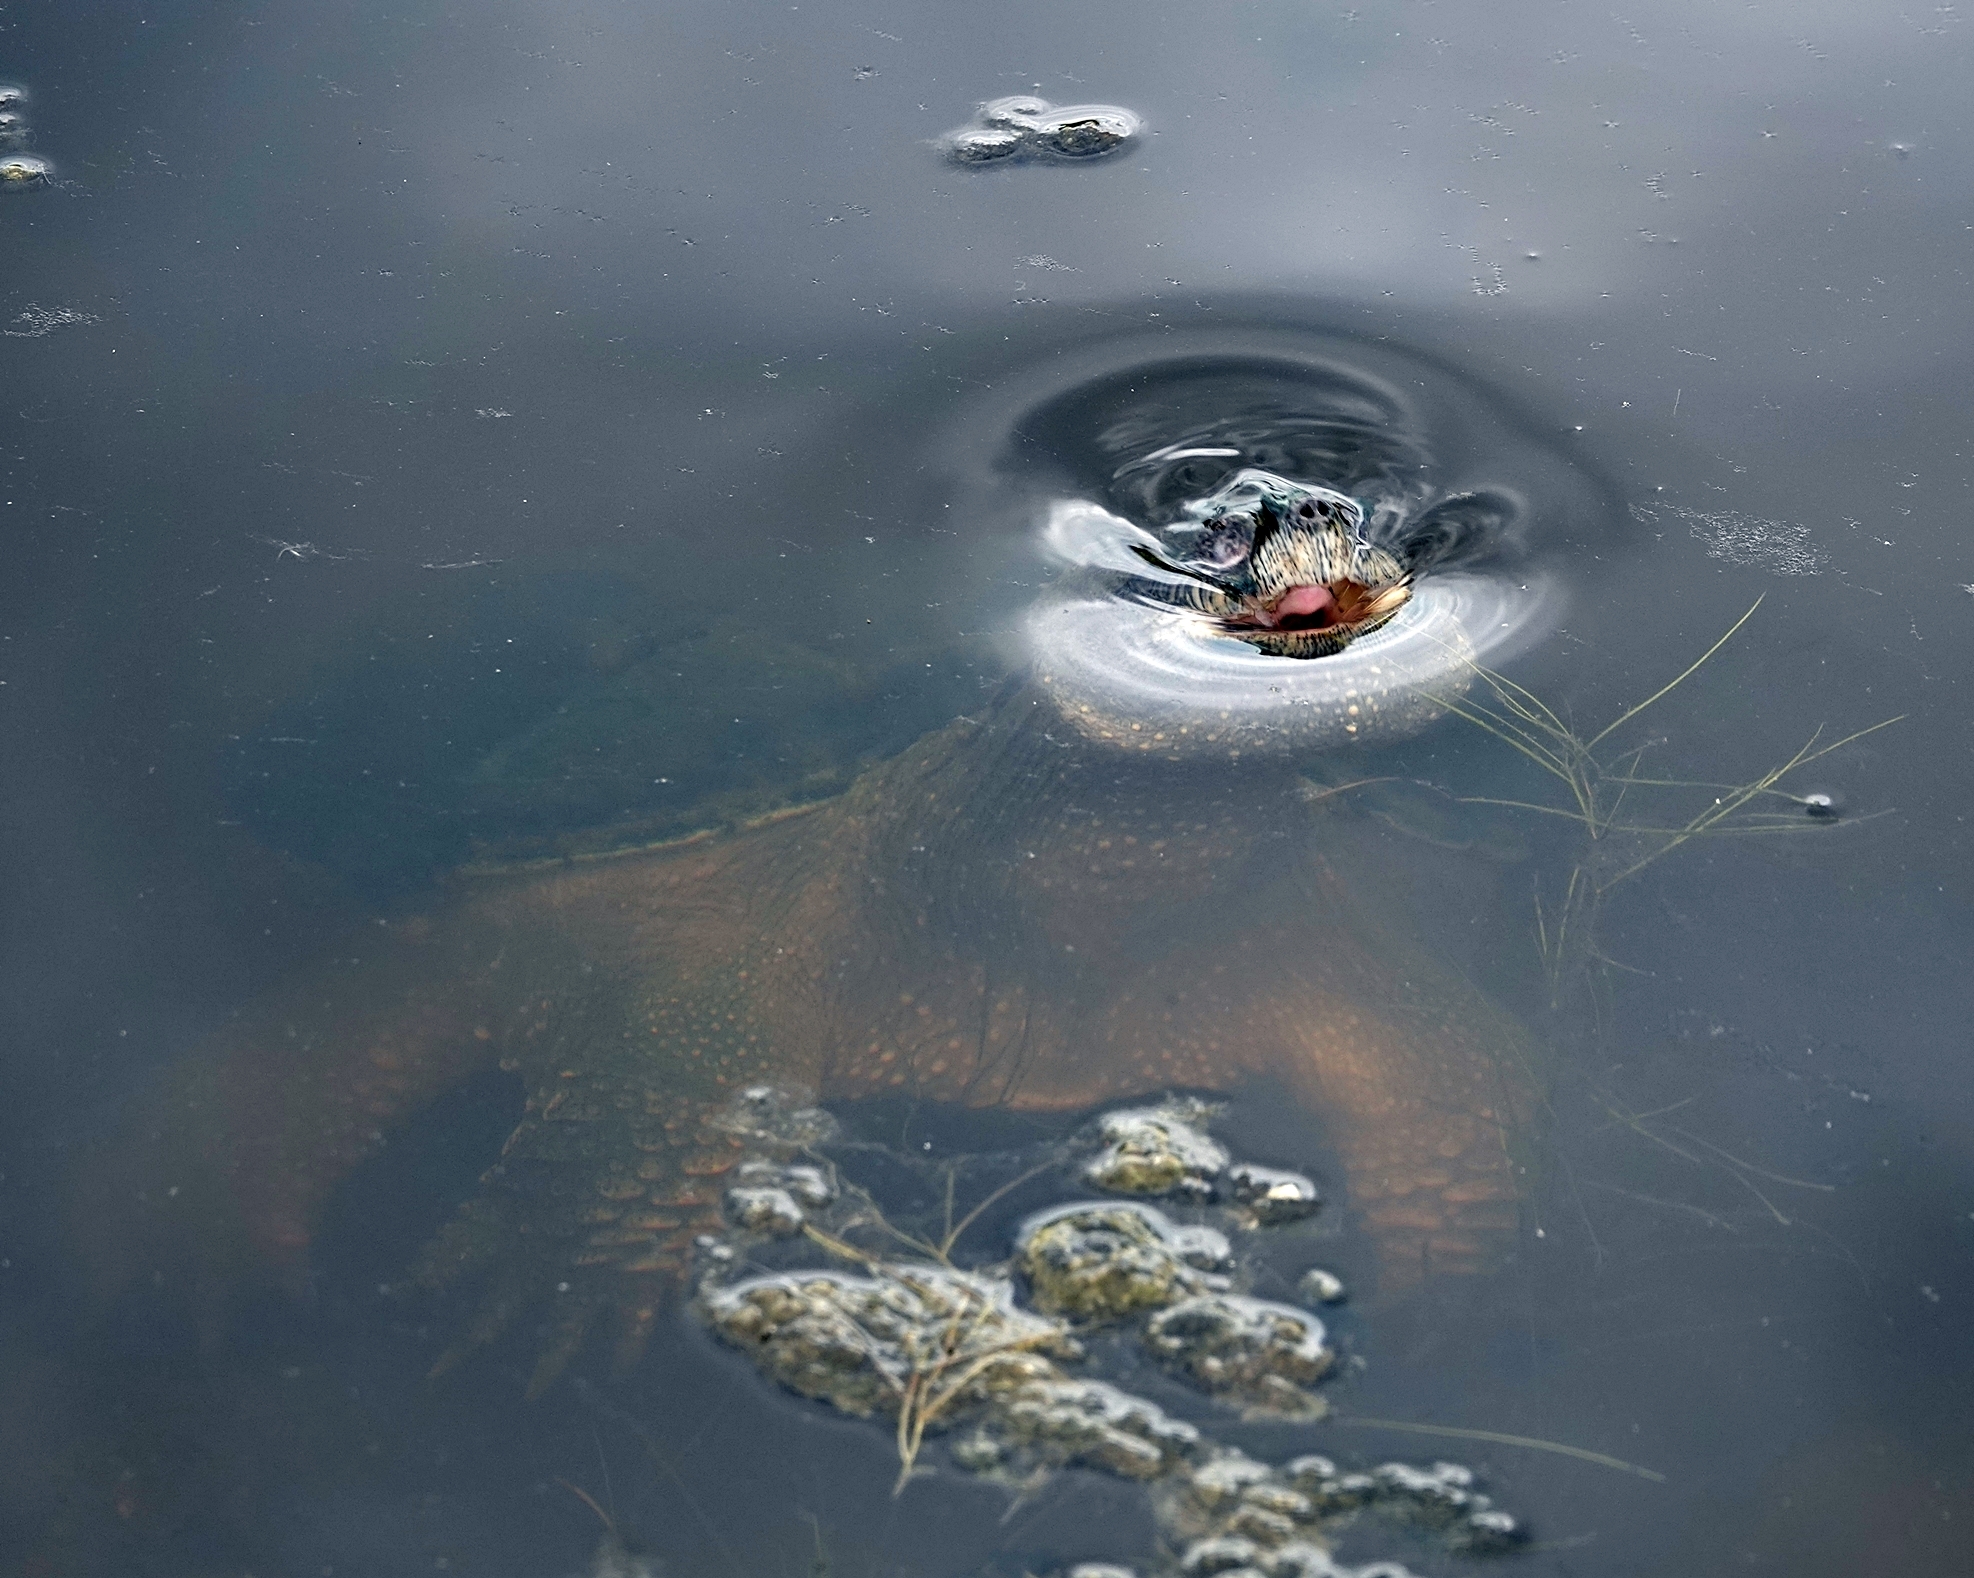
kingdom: Animalia
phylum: Chordata
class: Testudines
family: Chelydridae
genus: Chelydra
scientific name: Chelydra serpentina
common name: Common snapping turtle
